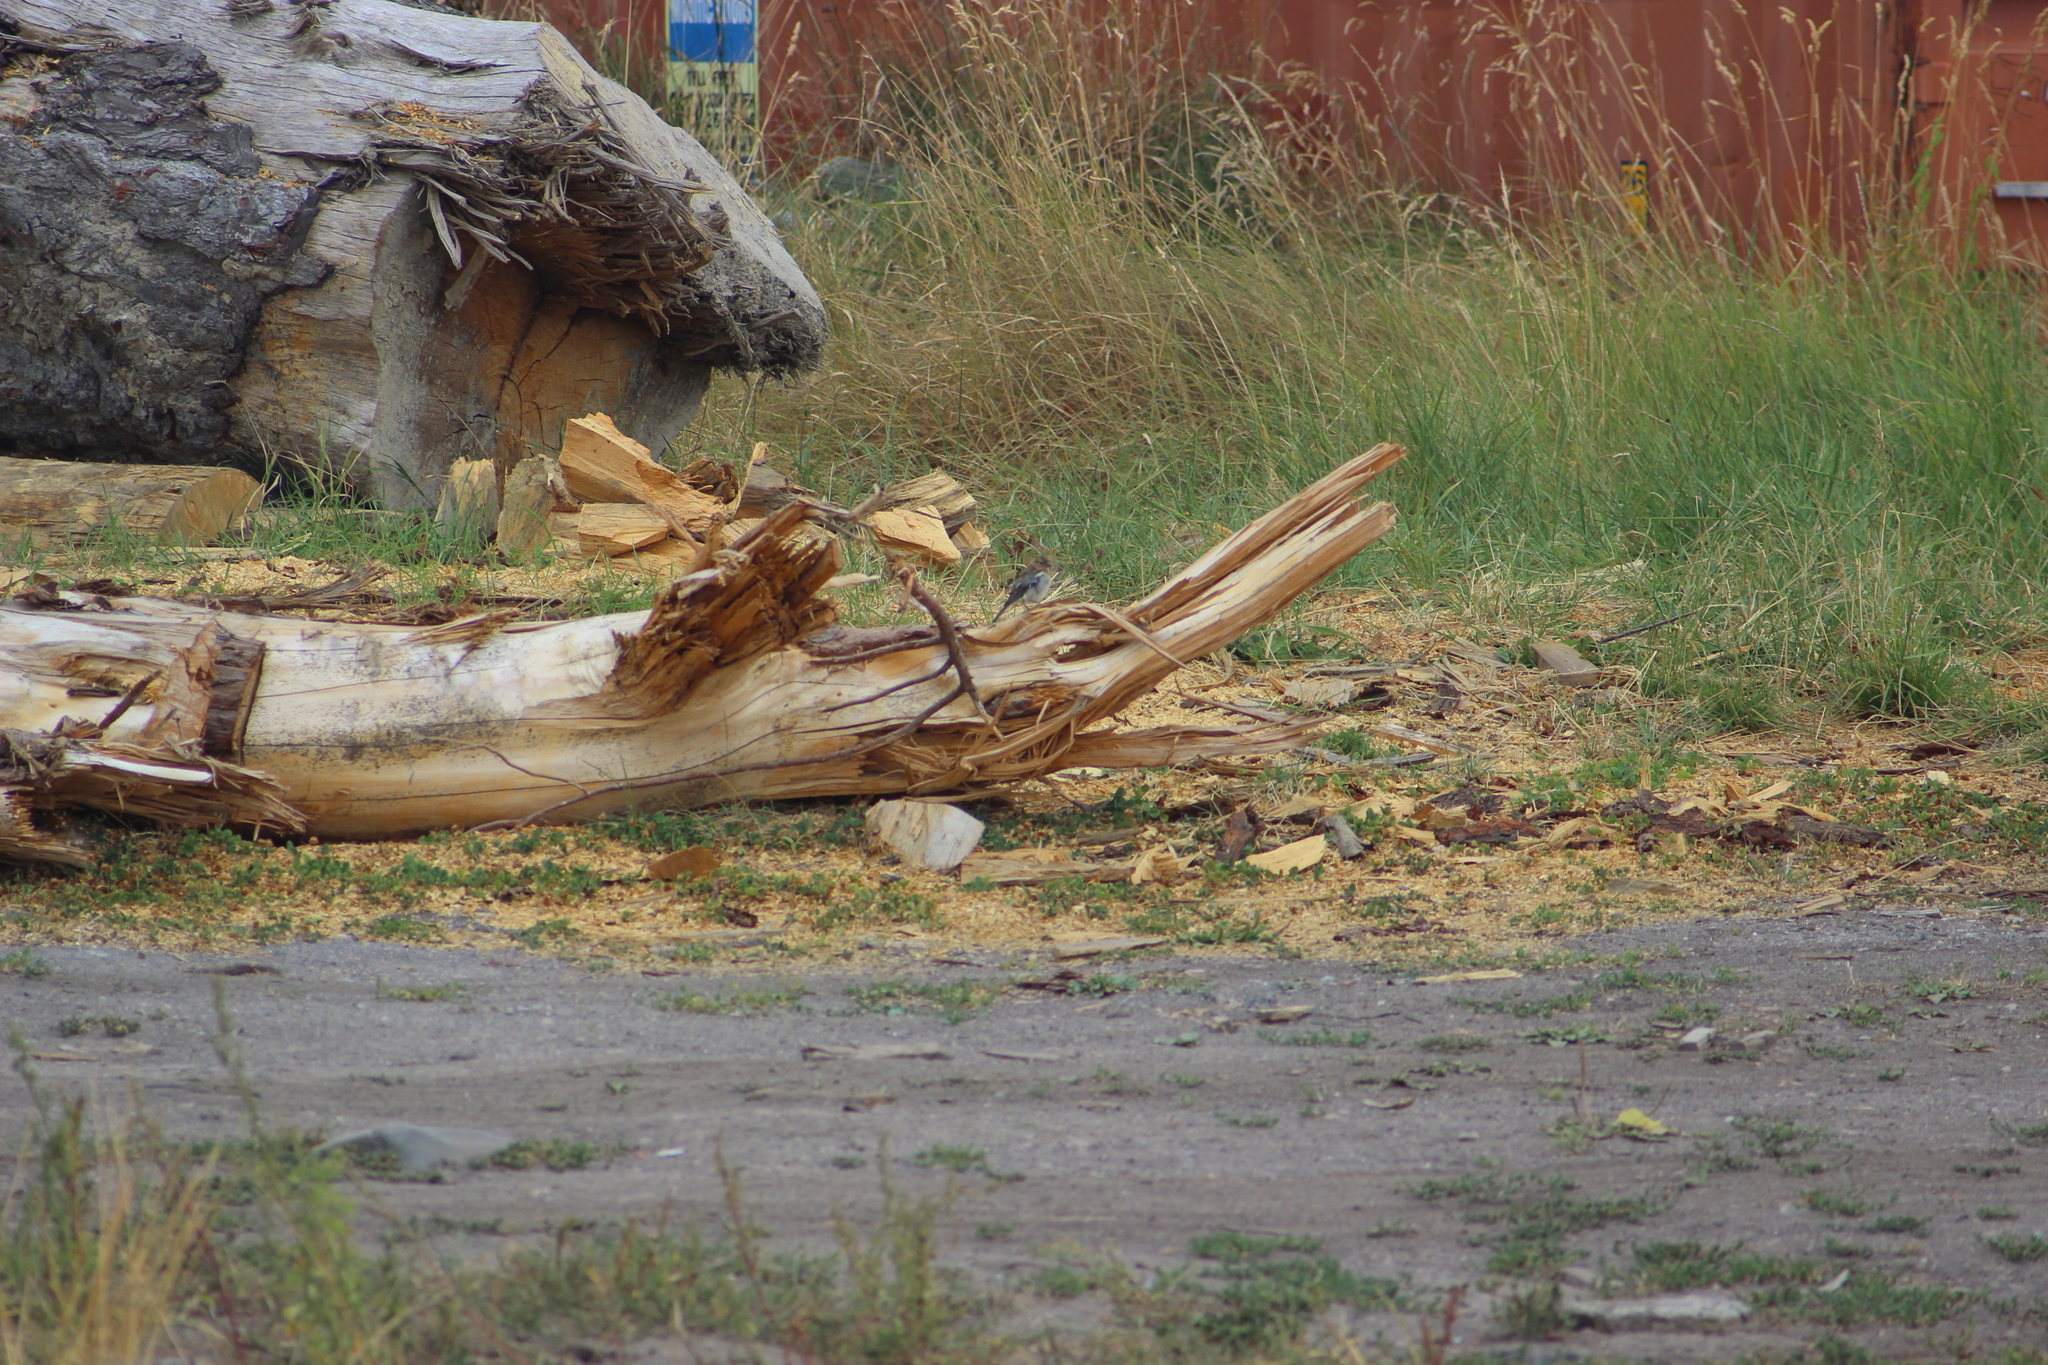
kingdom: Animalia
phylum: Chordata
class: Aves
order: Passeriformes
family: Fringillidae
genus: Fringilla
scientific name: Fringilla coelebs
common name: Common chaffinch
